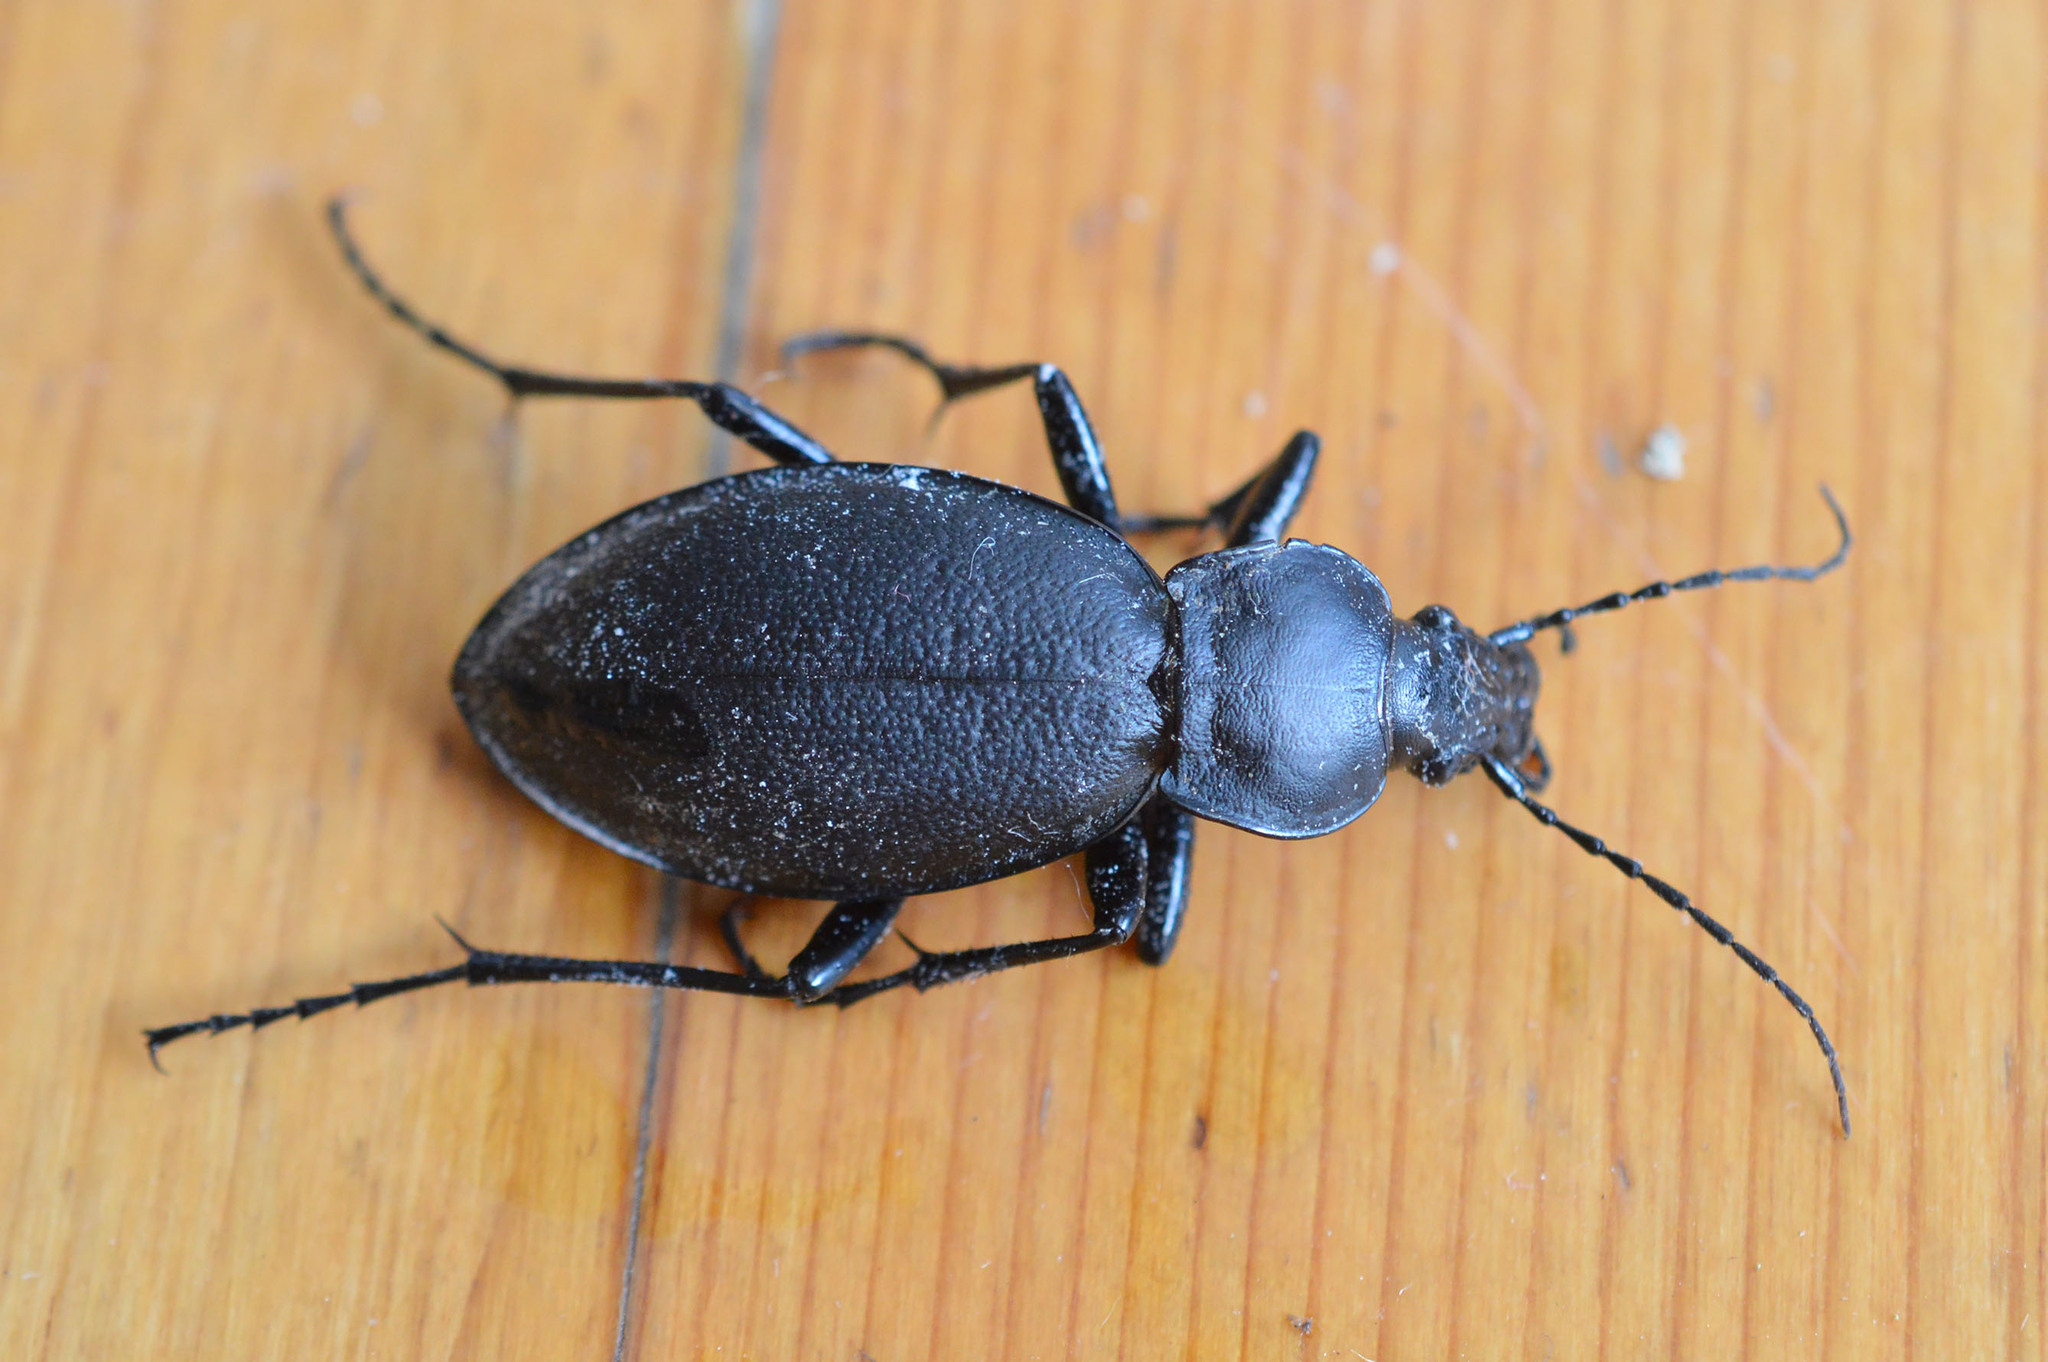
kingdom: Animalia
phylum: Arthropoda
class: Insecta
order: Coleoptera
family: Carabidae
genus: Carabus
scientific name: Carabus coriaceus
